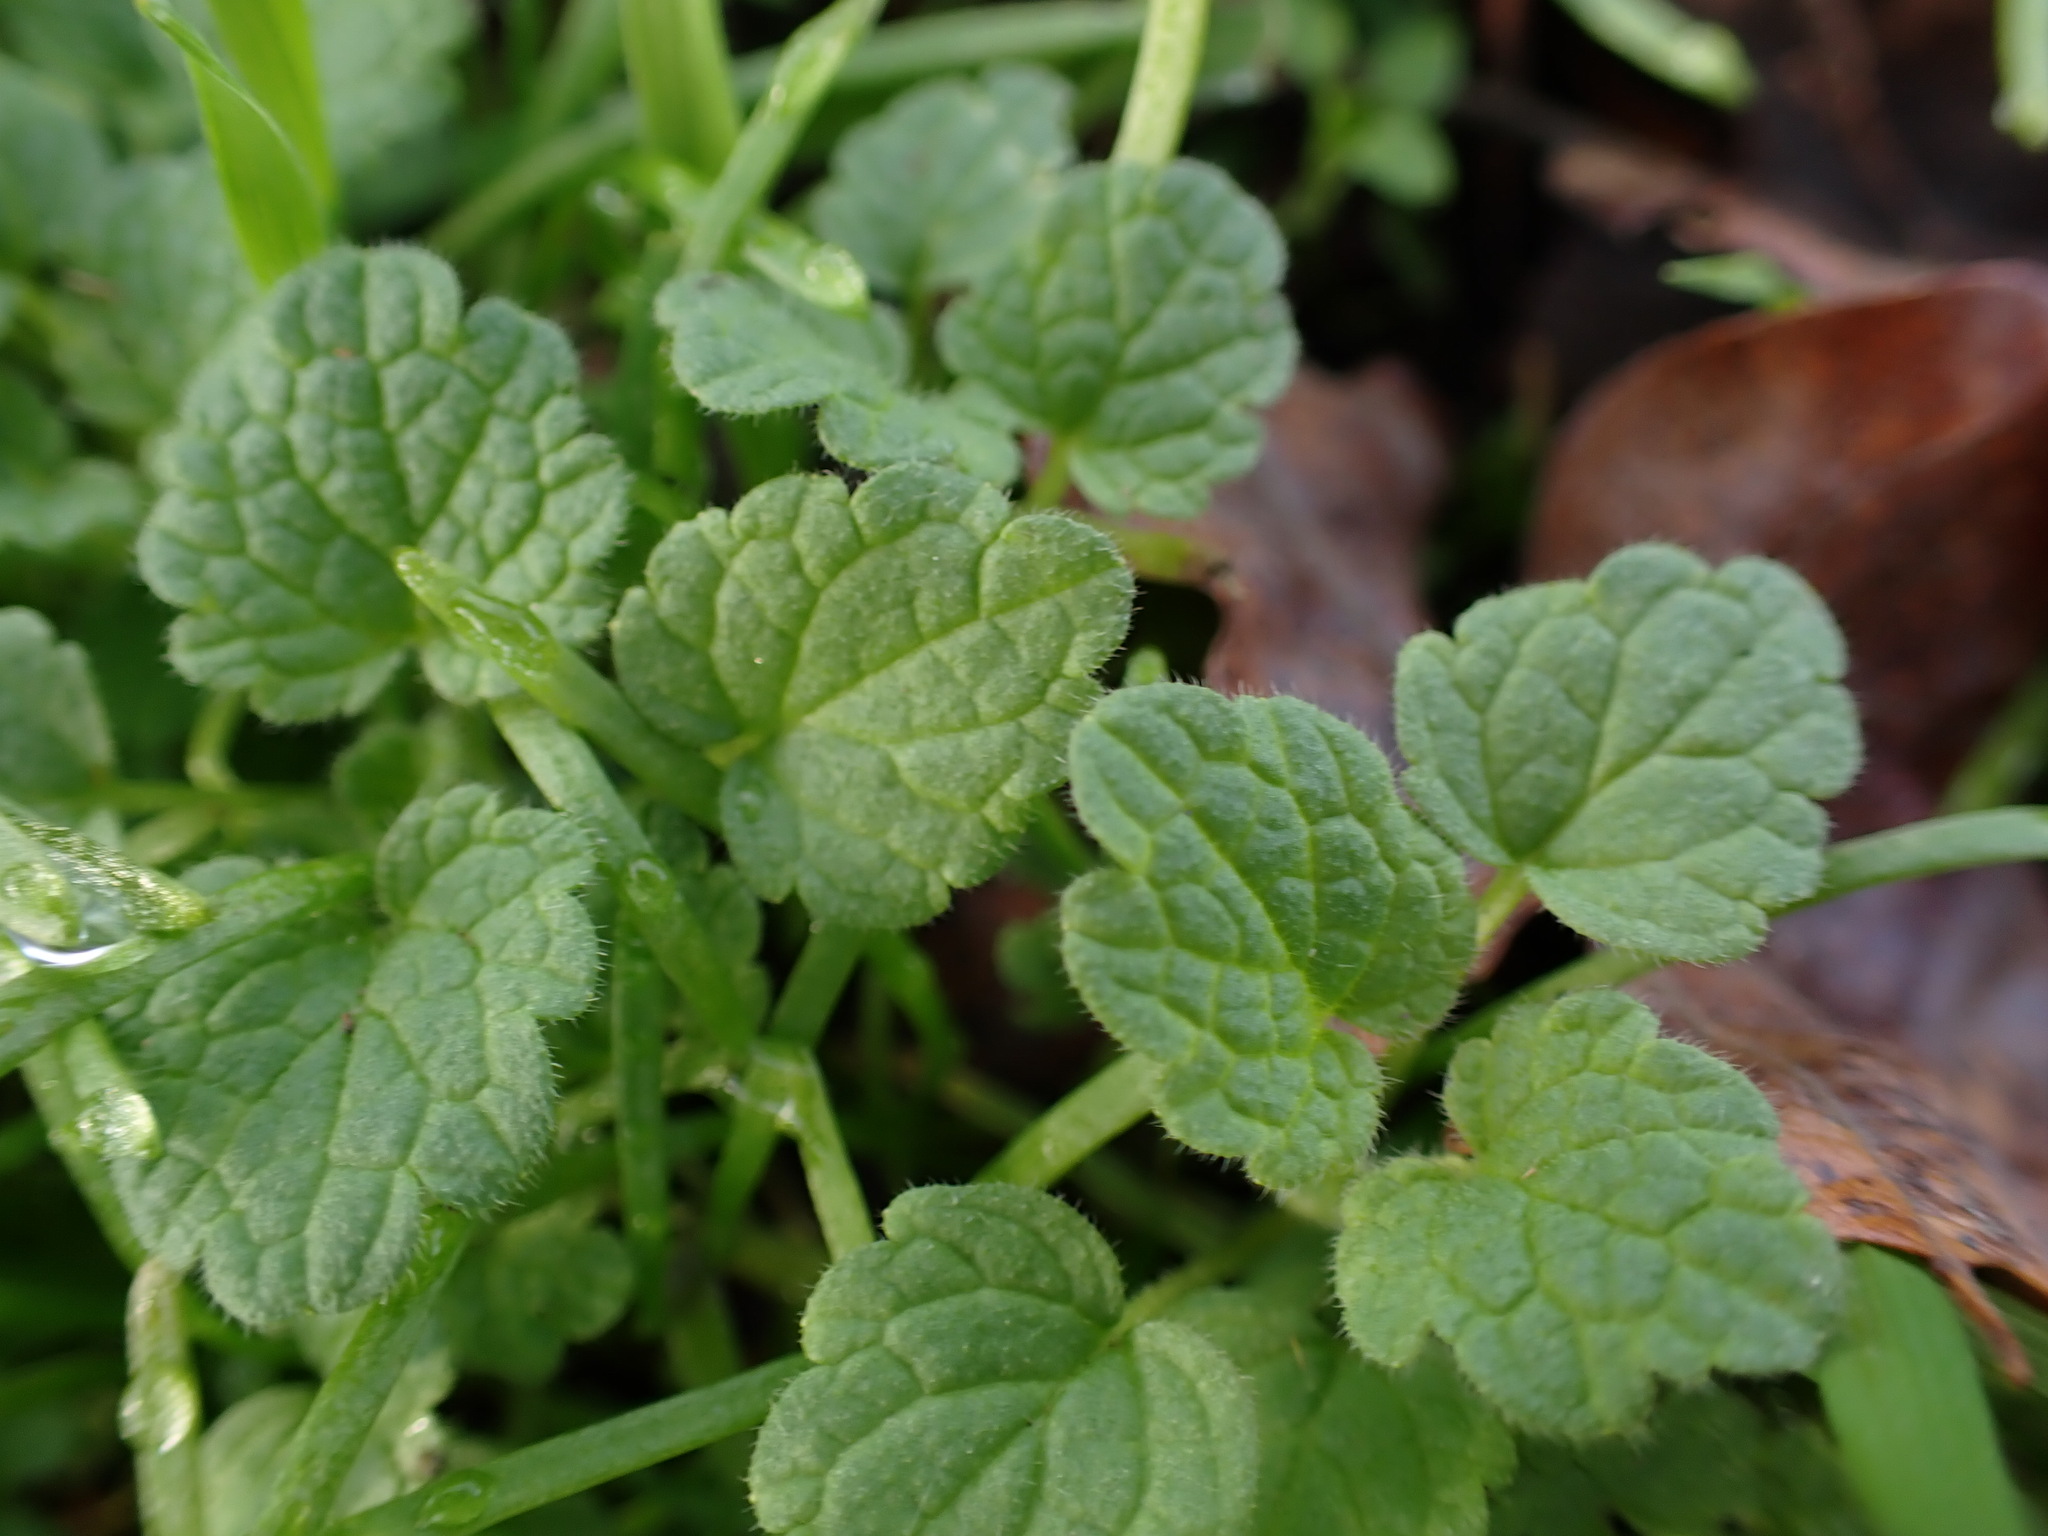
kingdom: Plantae
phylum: Tracheophyta
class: Magnoliopsida
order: Lamiales
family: Lamiaceae
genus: Lamium
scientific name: Lamium purpureum
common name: Red dead-nettle
